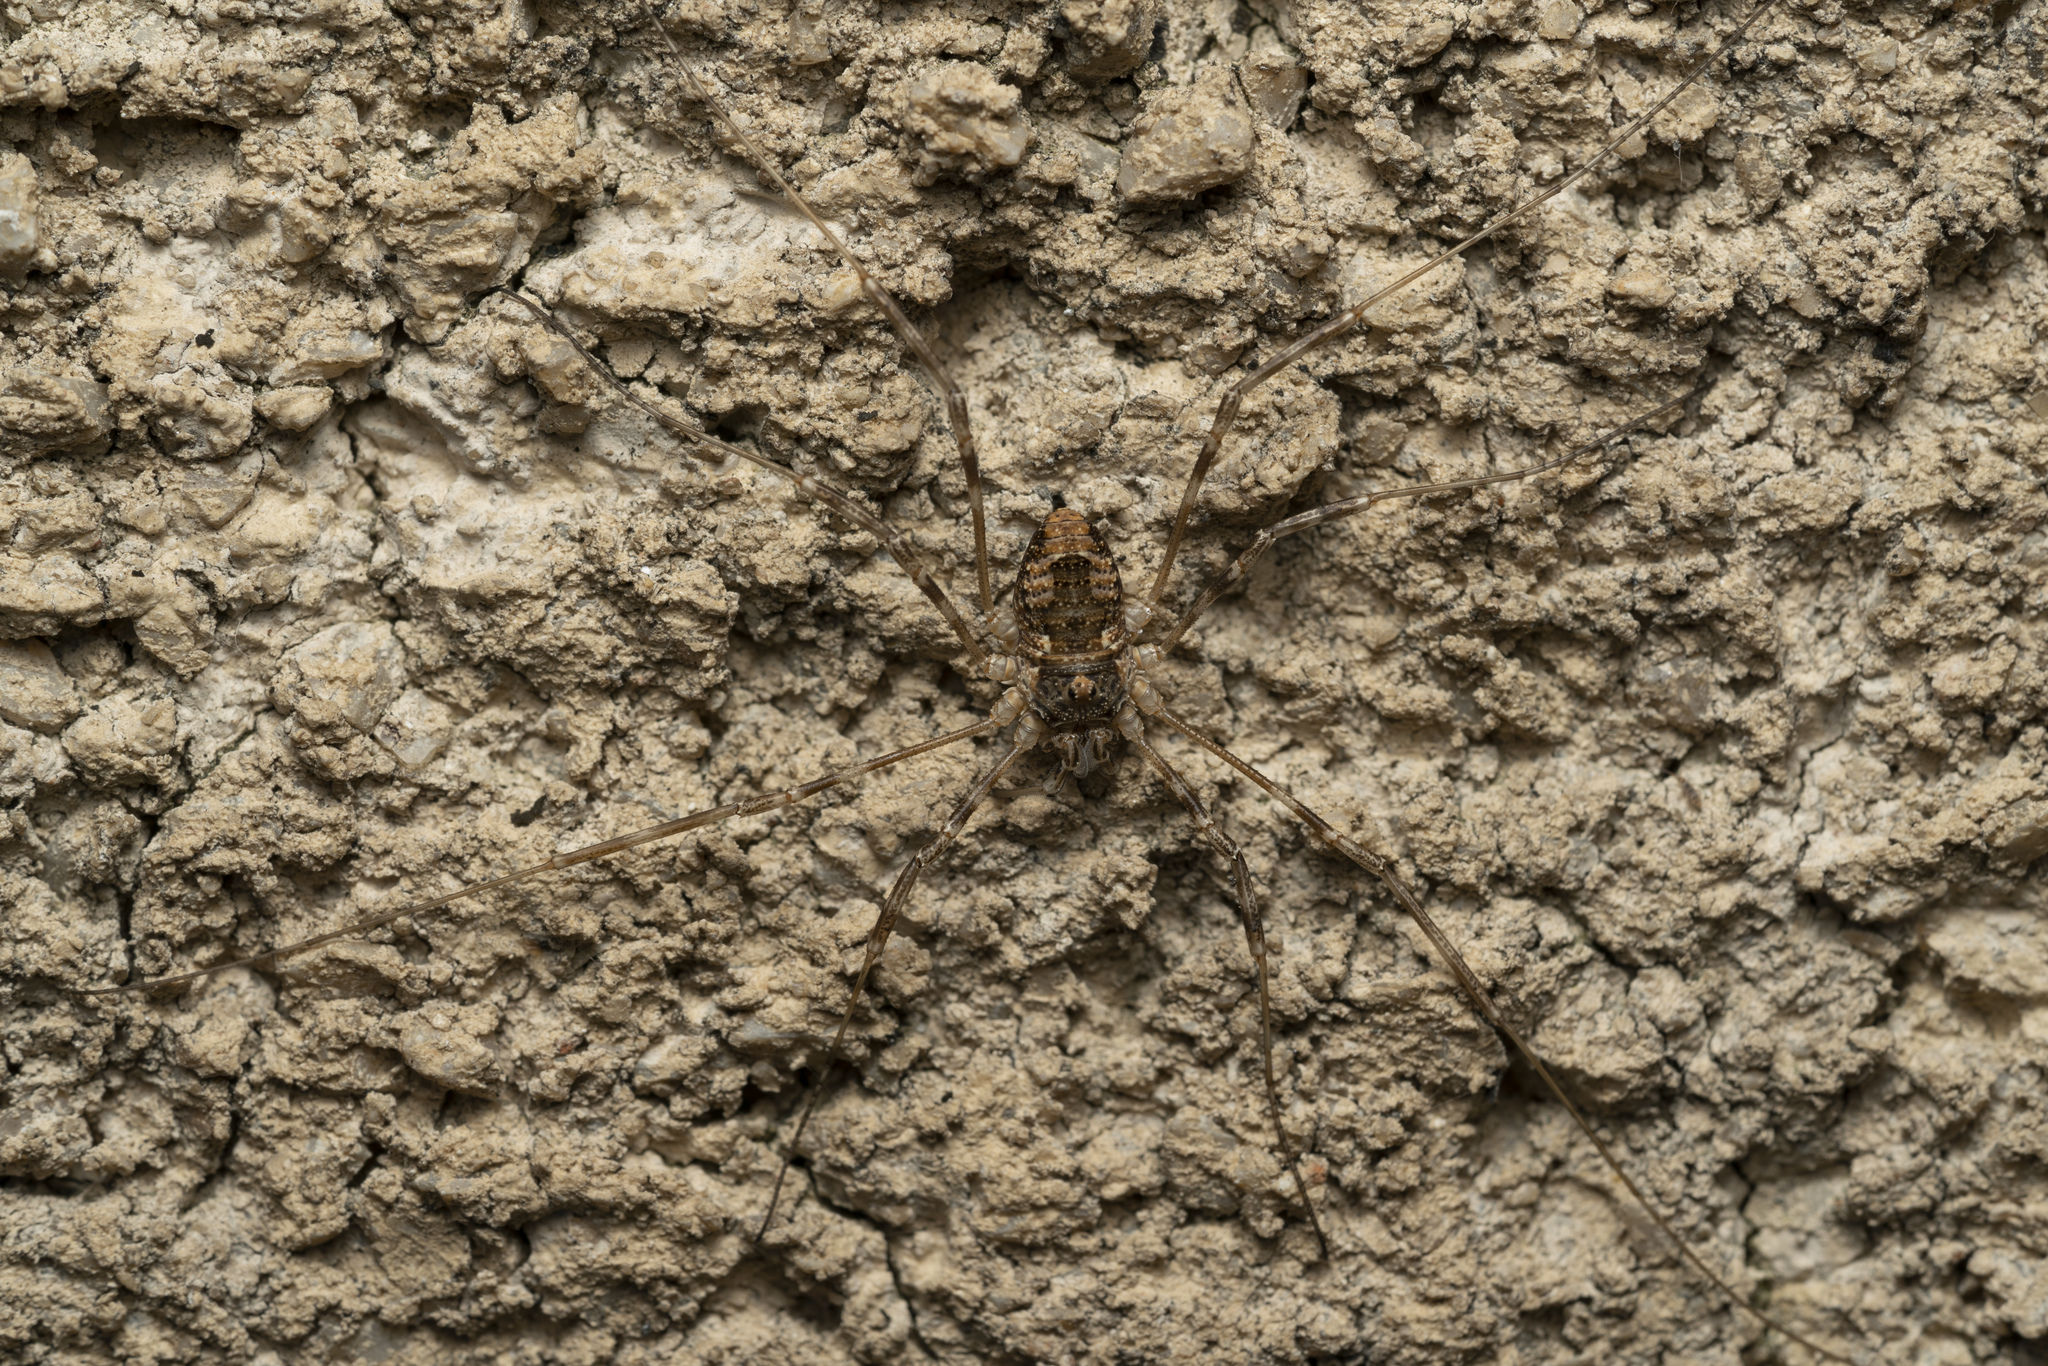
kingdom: Animalia
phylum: Arthropoda
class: Arachnida
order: Opiliones
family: Phalangiidae
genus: Rafalskia
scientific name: Rafalskia cretica
